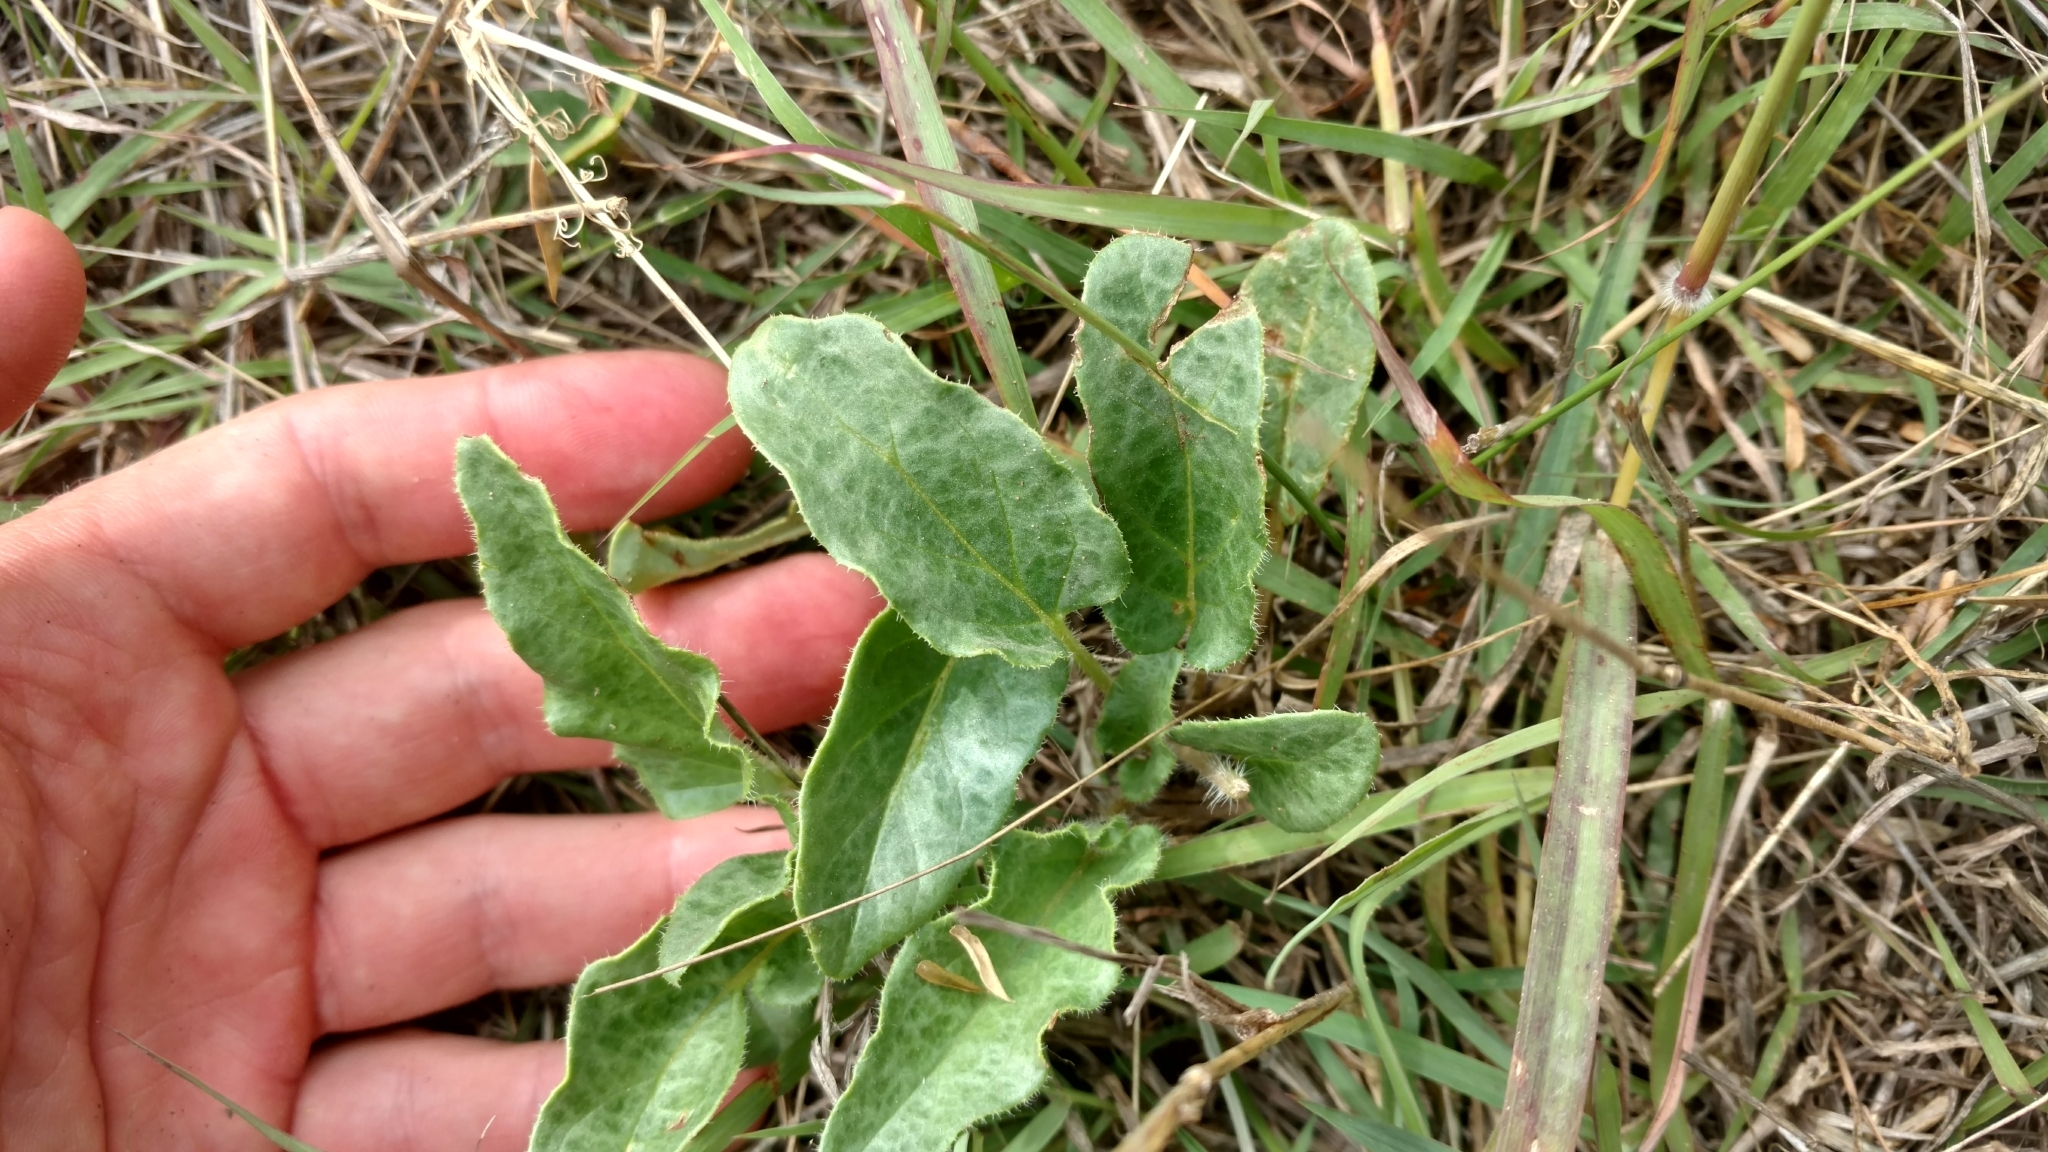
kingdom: Plantae
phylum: Tracheophyta
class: Magnoliopsida
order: Caryophyllales
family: Nyctaginaceae
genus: Nyctaginia
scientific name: Nyctaginia capitata
